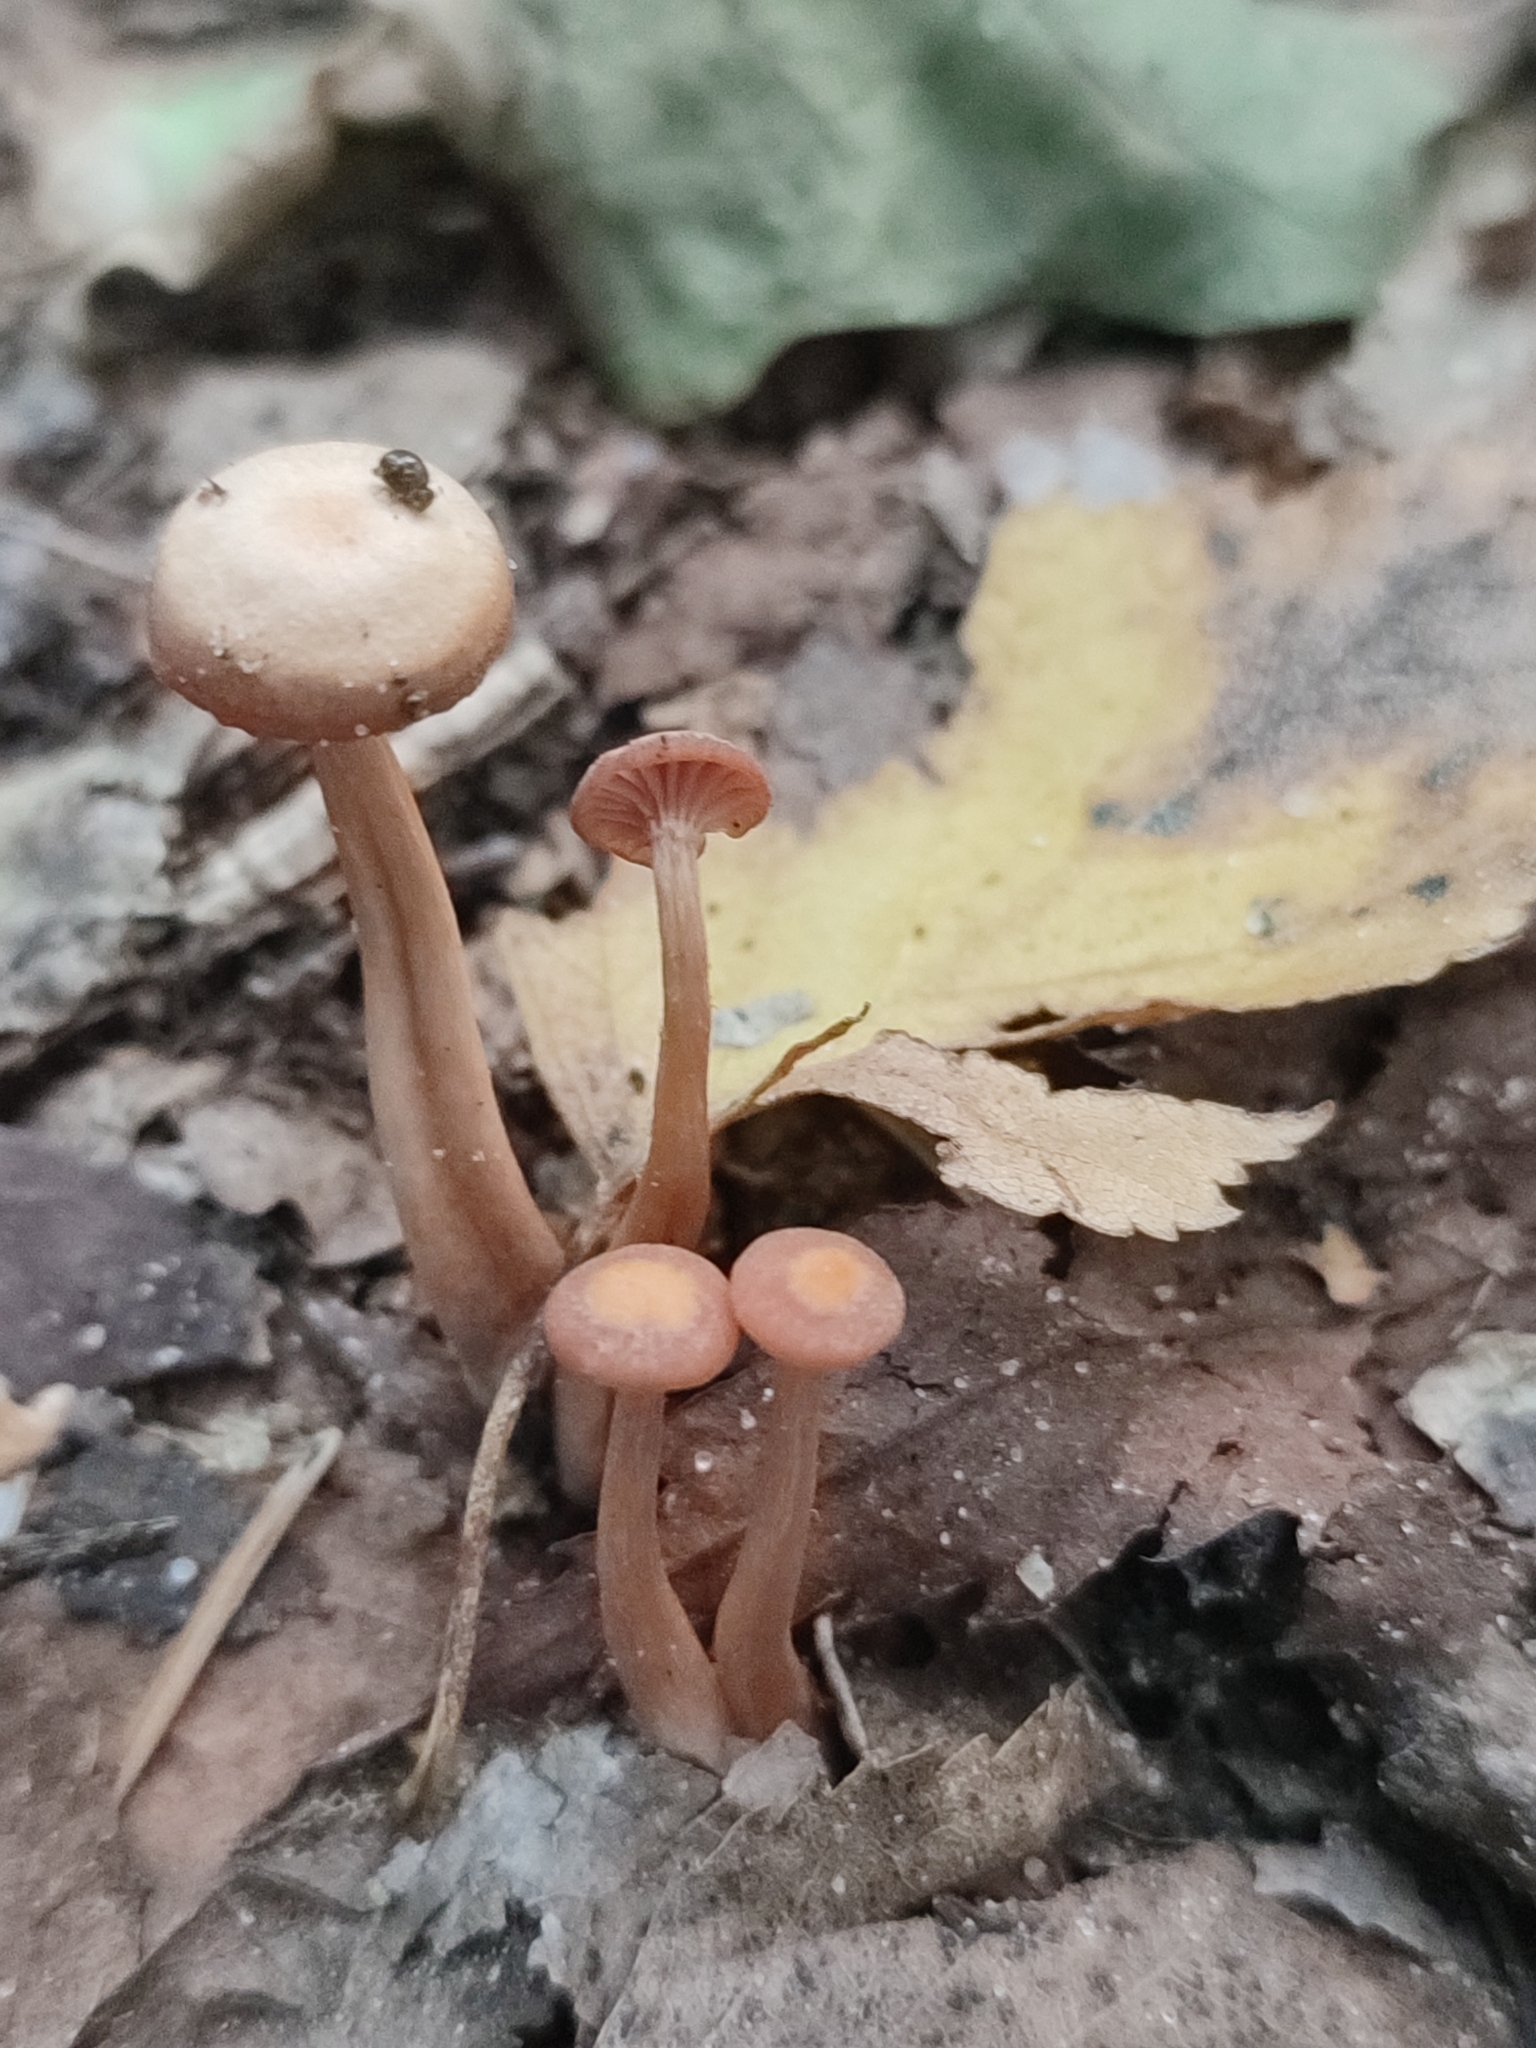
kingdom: Fungi
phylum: Basidiomycota
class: Agaricomycetes
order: Agaricales
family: Hydnangiaceae
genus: Laccaria
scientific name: Laccaria laccata
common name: Deceiver
